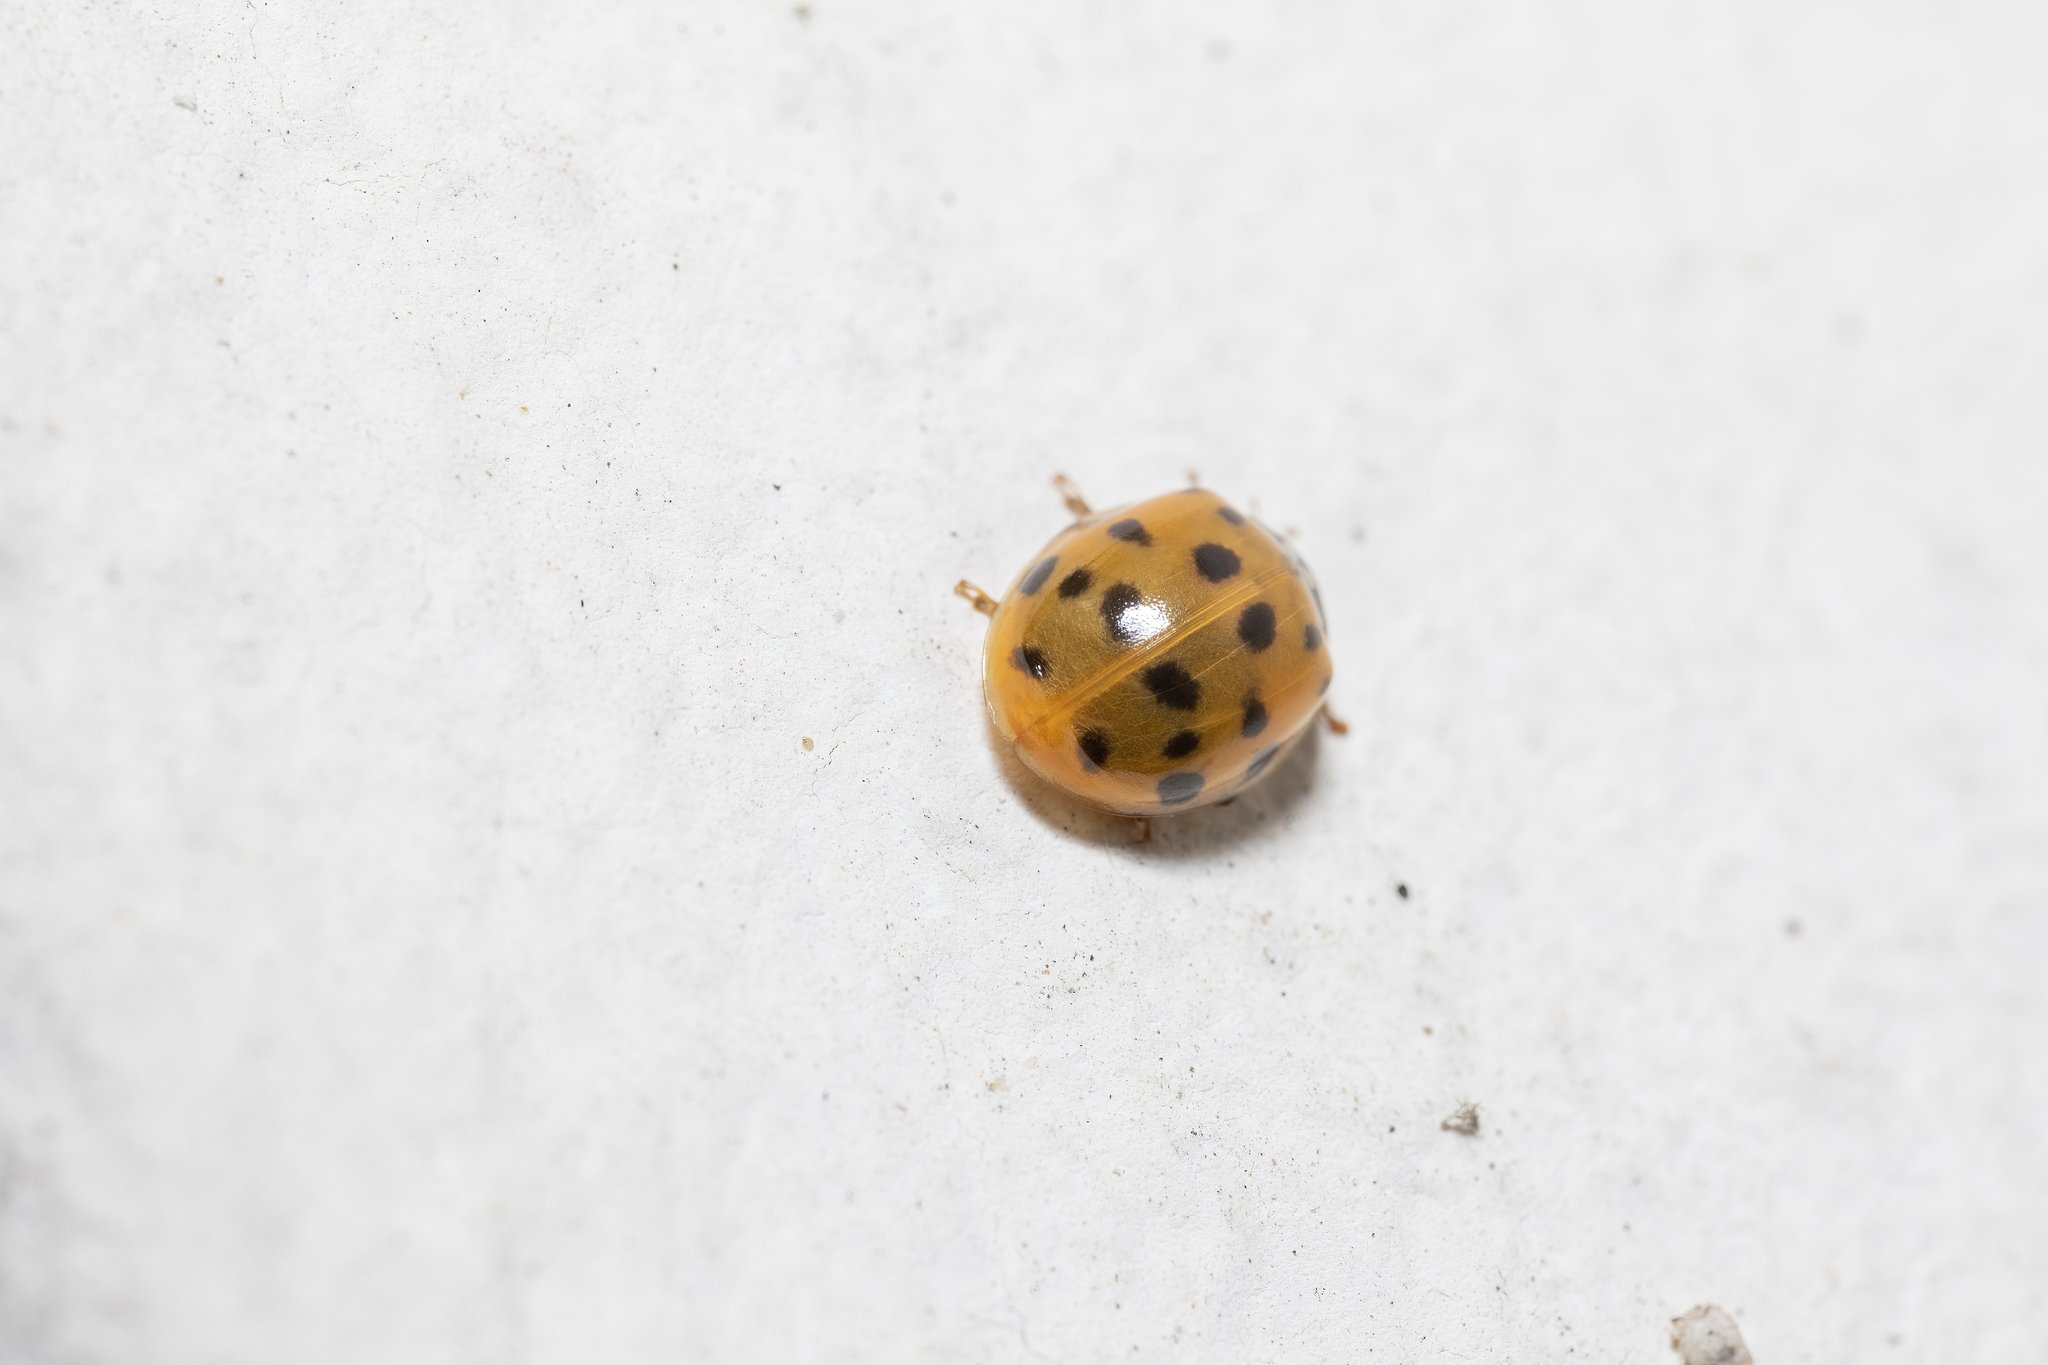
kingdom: Animalia
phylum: Arthropoda
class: Insecta
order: Coleoptera
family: Coccinellidae
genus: Harmonia
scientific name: Harmonia axyridis
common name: Harlequin ladybird
